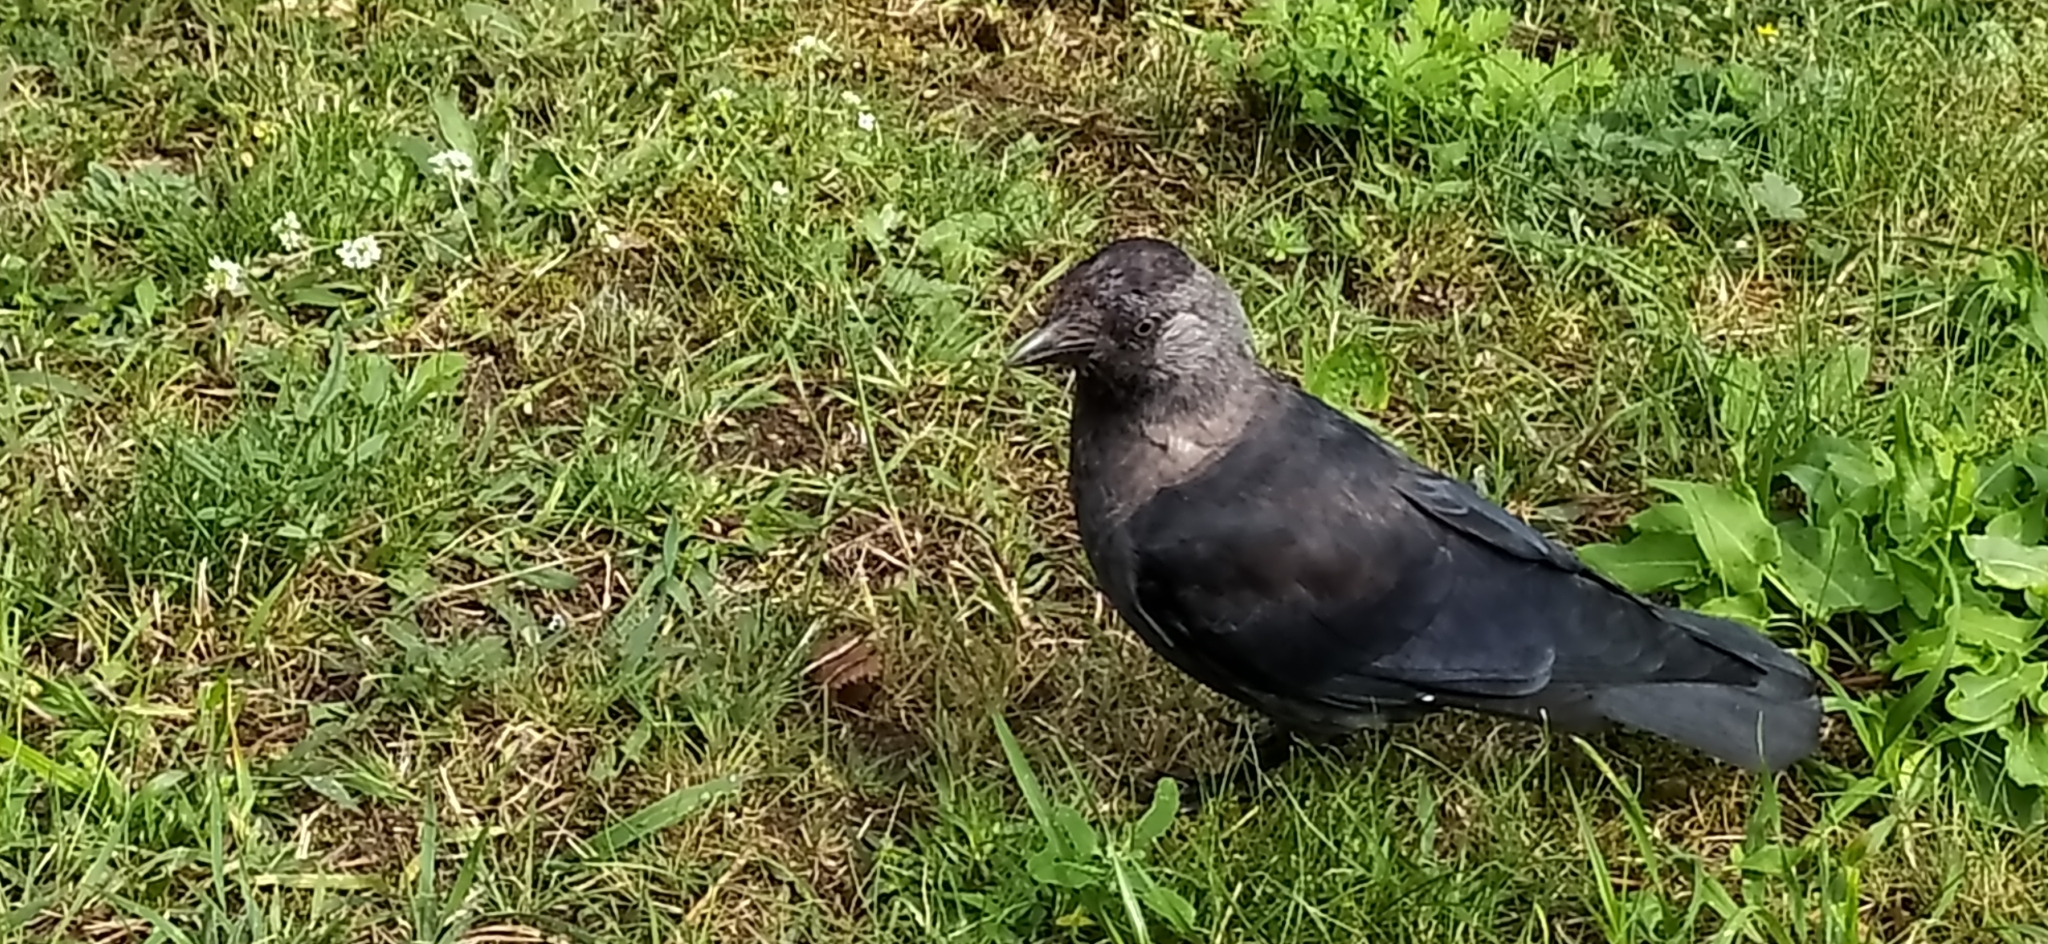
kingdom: Animalia
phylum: Chordata
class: Aves
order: Passeriformes
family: Corvidae
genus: Coloeus
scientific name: Coloeus monedula
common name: Western jackdaw
